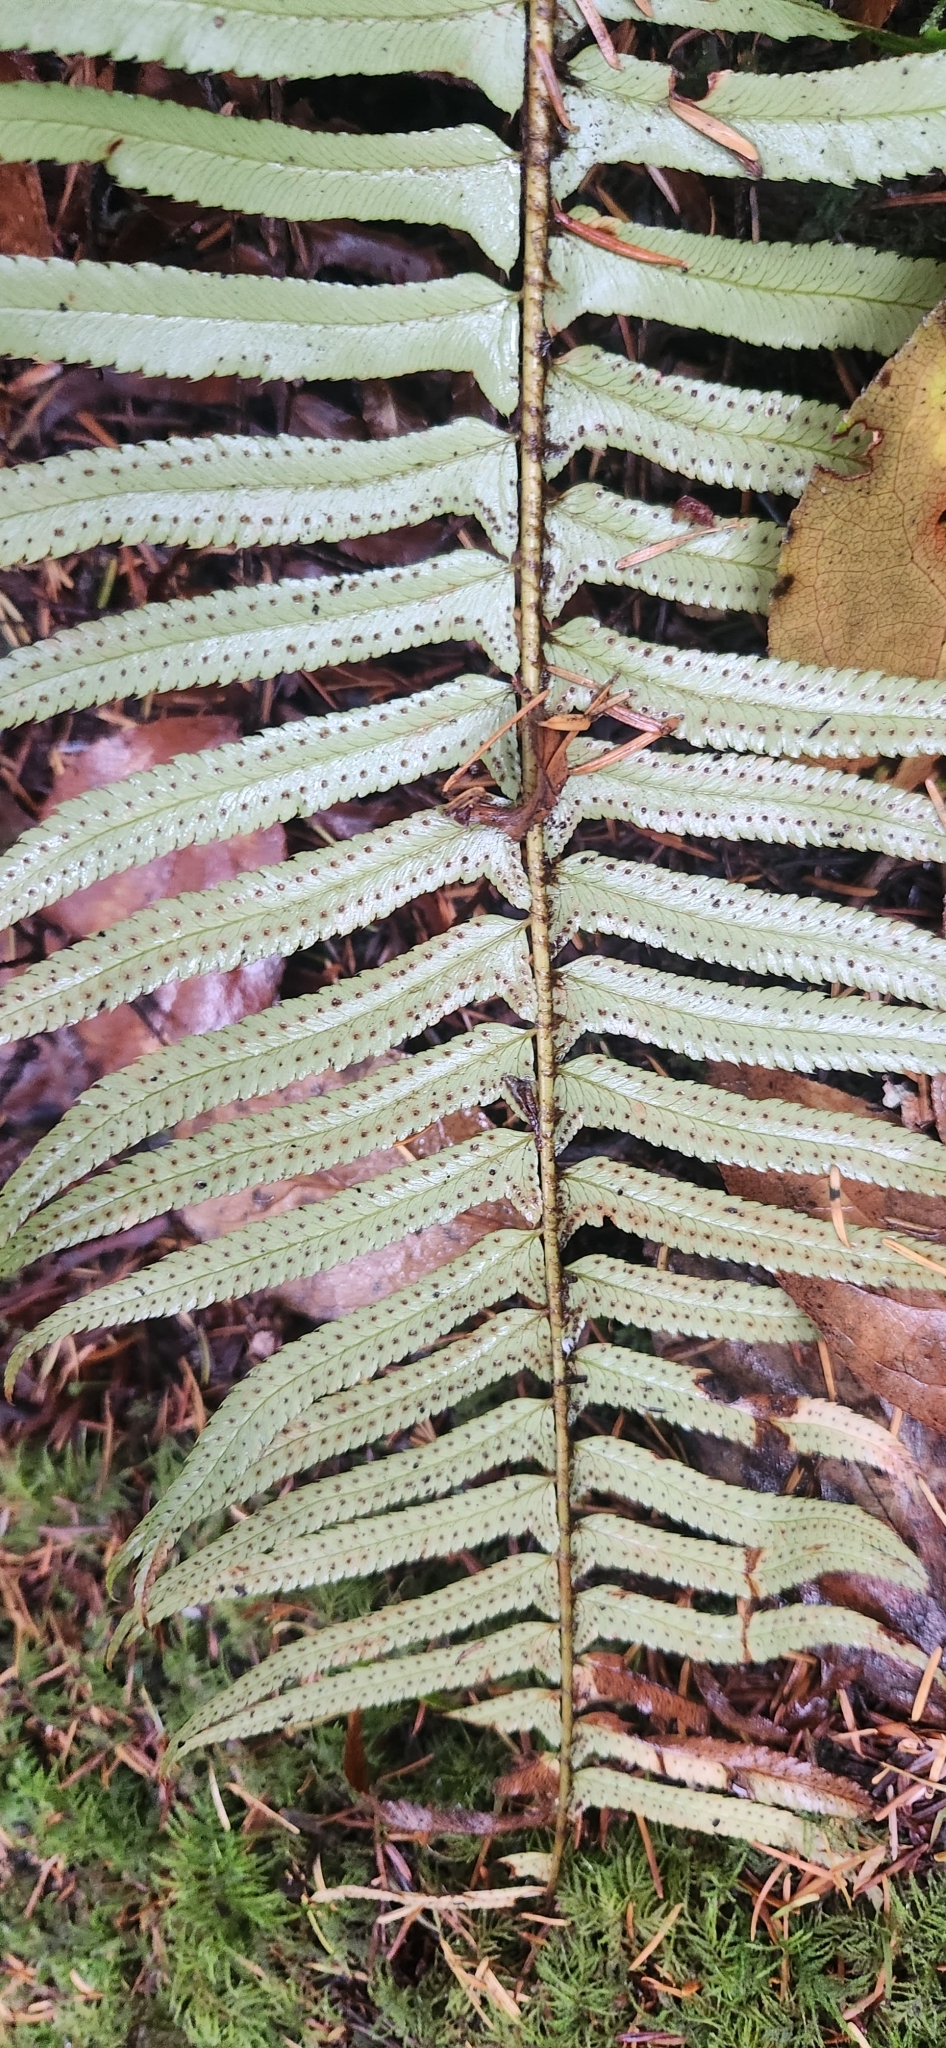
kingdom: Plantae
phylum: Tracheophyta
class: Polypodiopsida
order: Polypodiales
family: Dryopteridaceae
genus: Polystichum
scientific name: Polystichum munitum
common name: Western sword-fern
